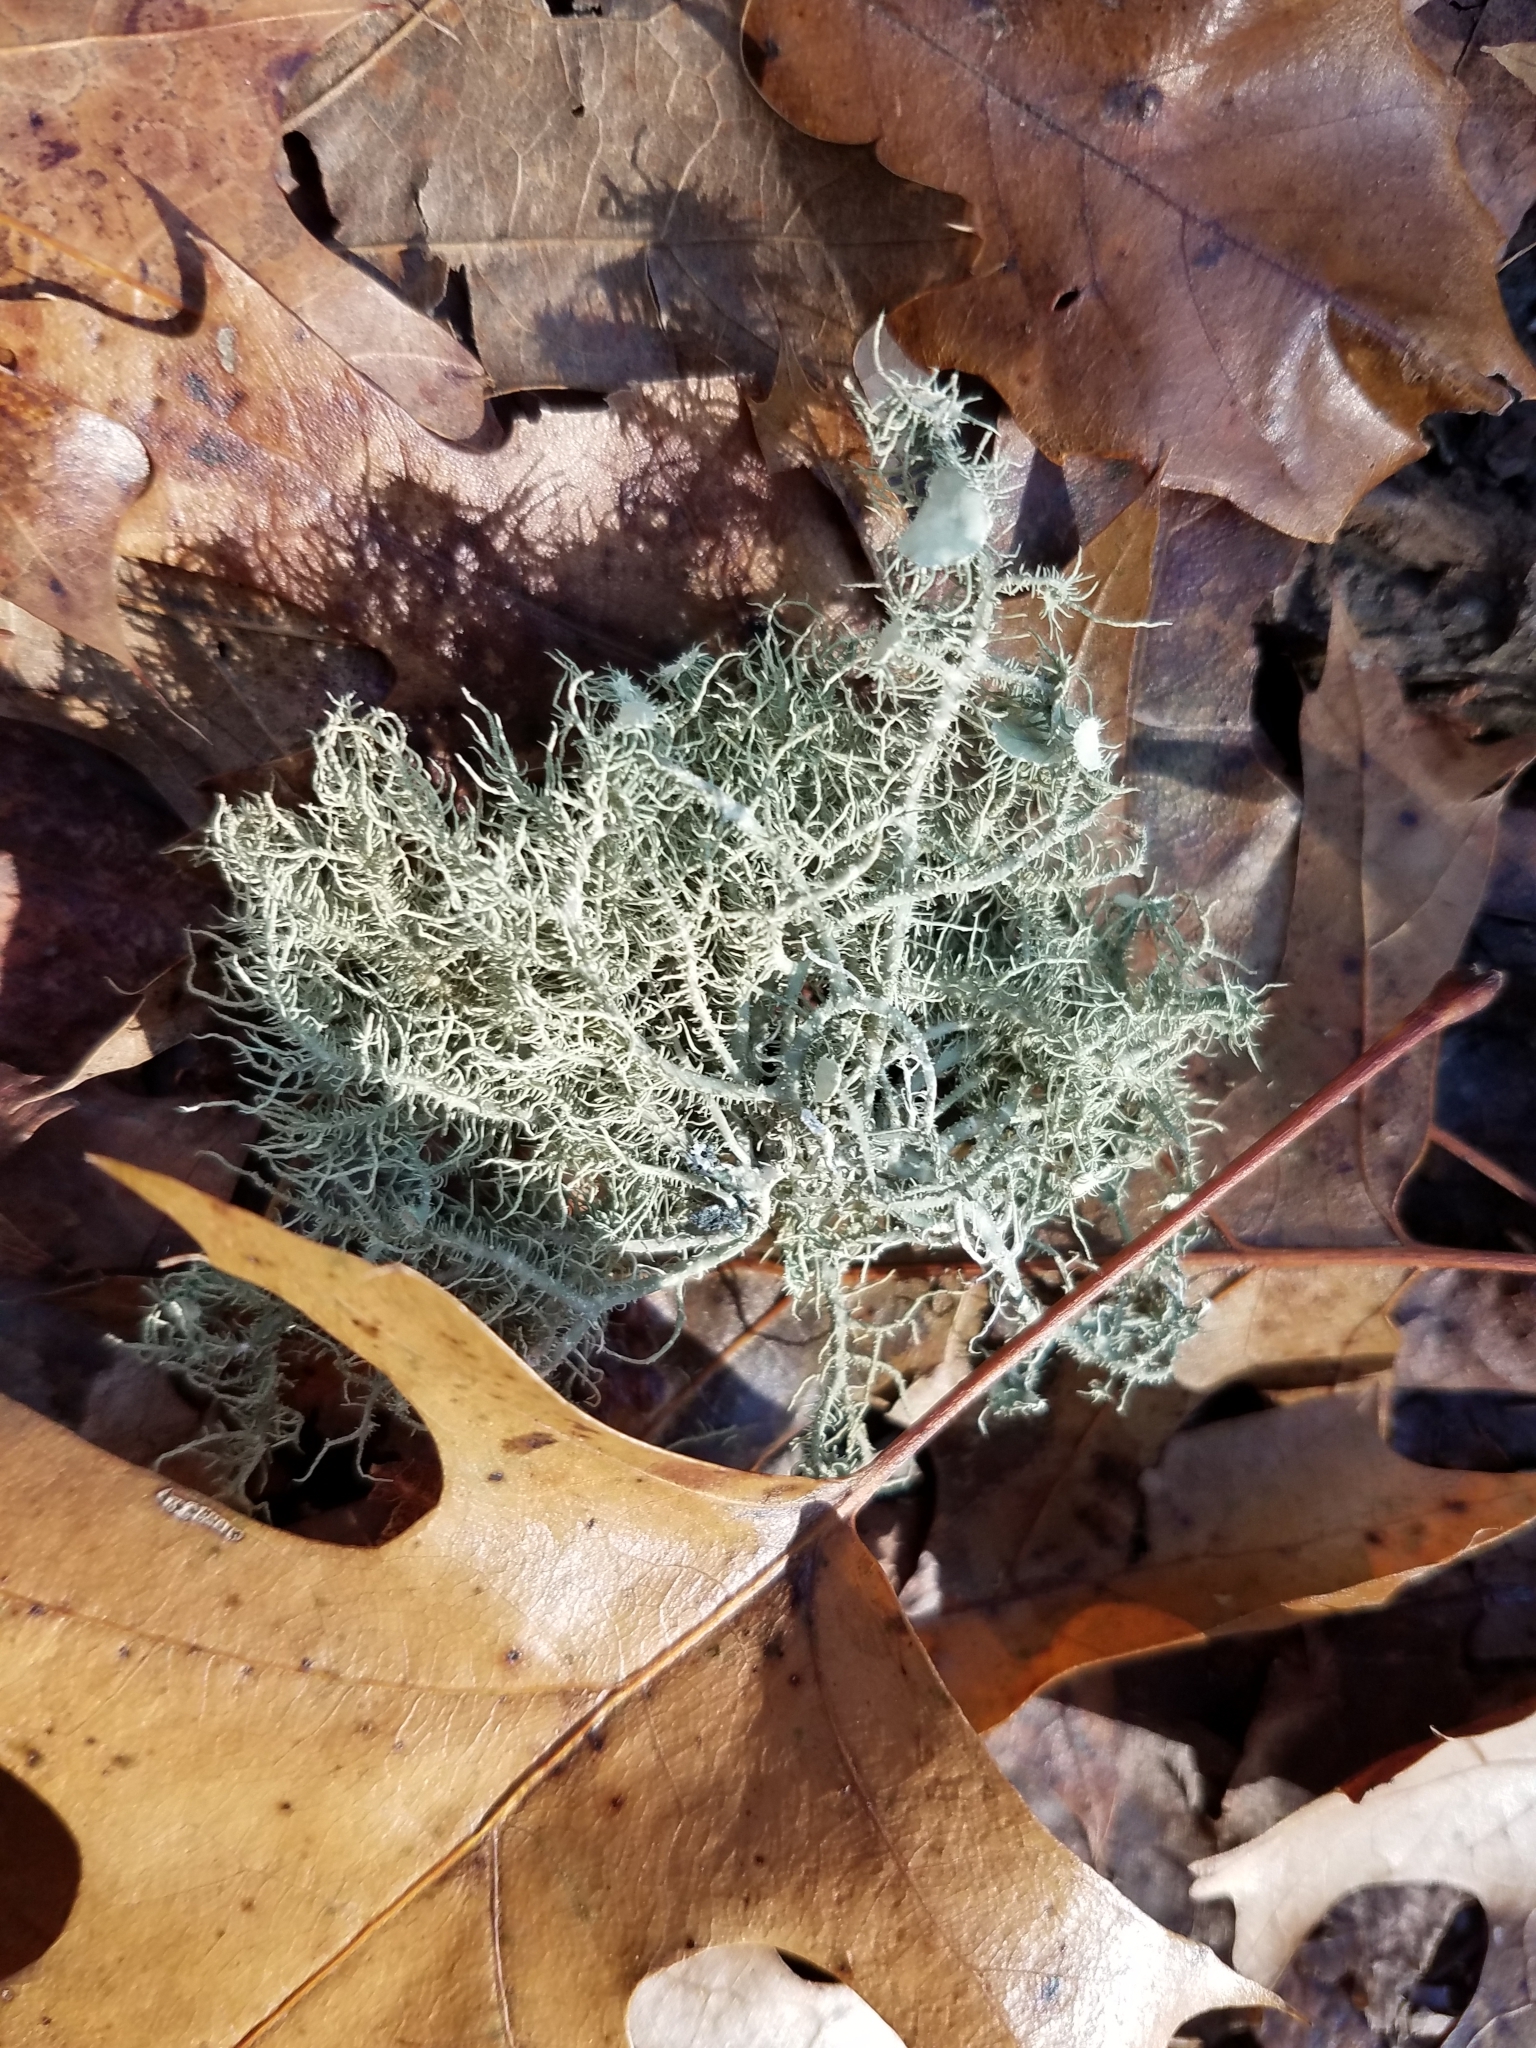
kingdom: Fungi
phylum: Ascomycota
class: Lecanoromycetes
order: Lecanorales
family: Parmeliaceae
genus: Usnea
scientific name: Usnea strigosa
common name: Bushy beard lichen
